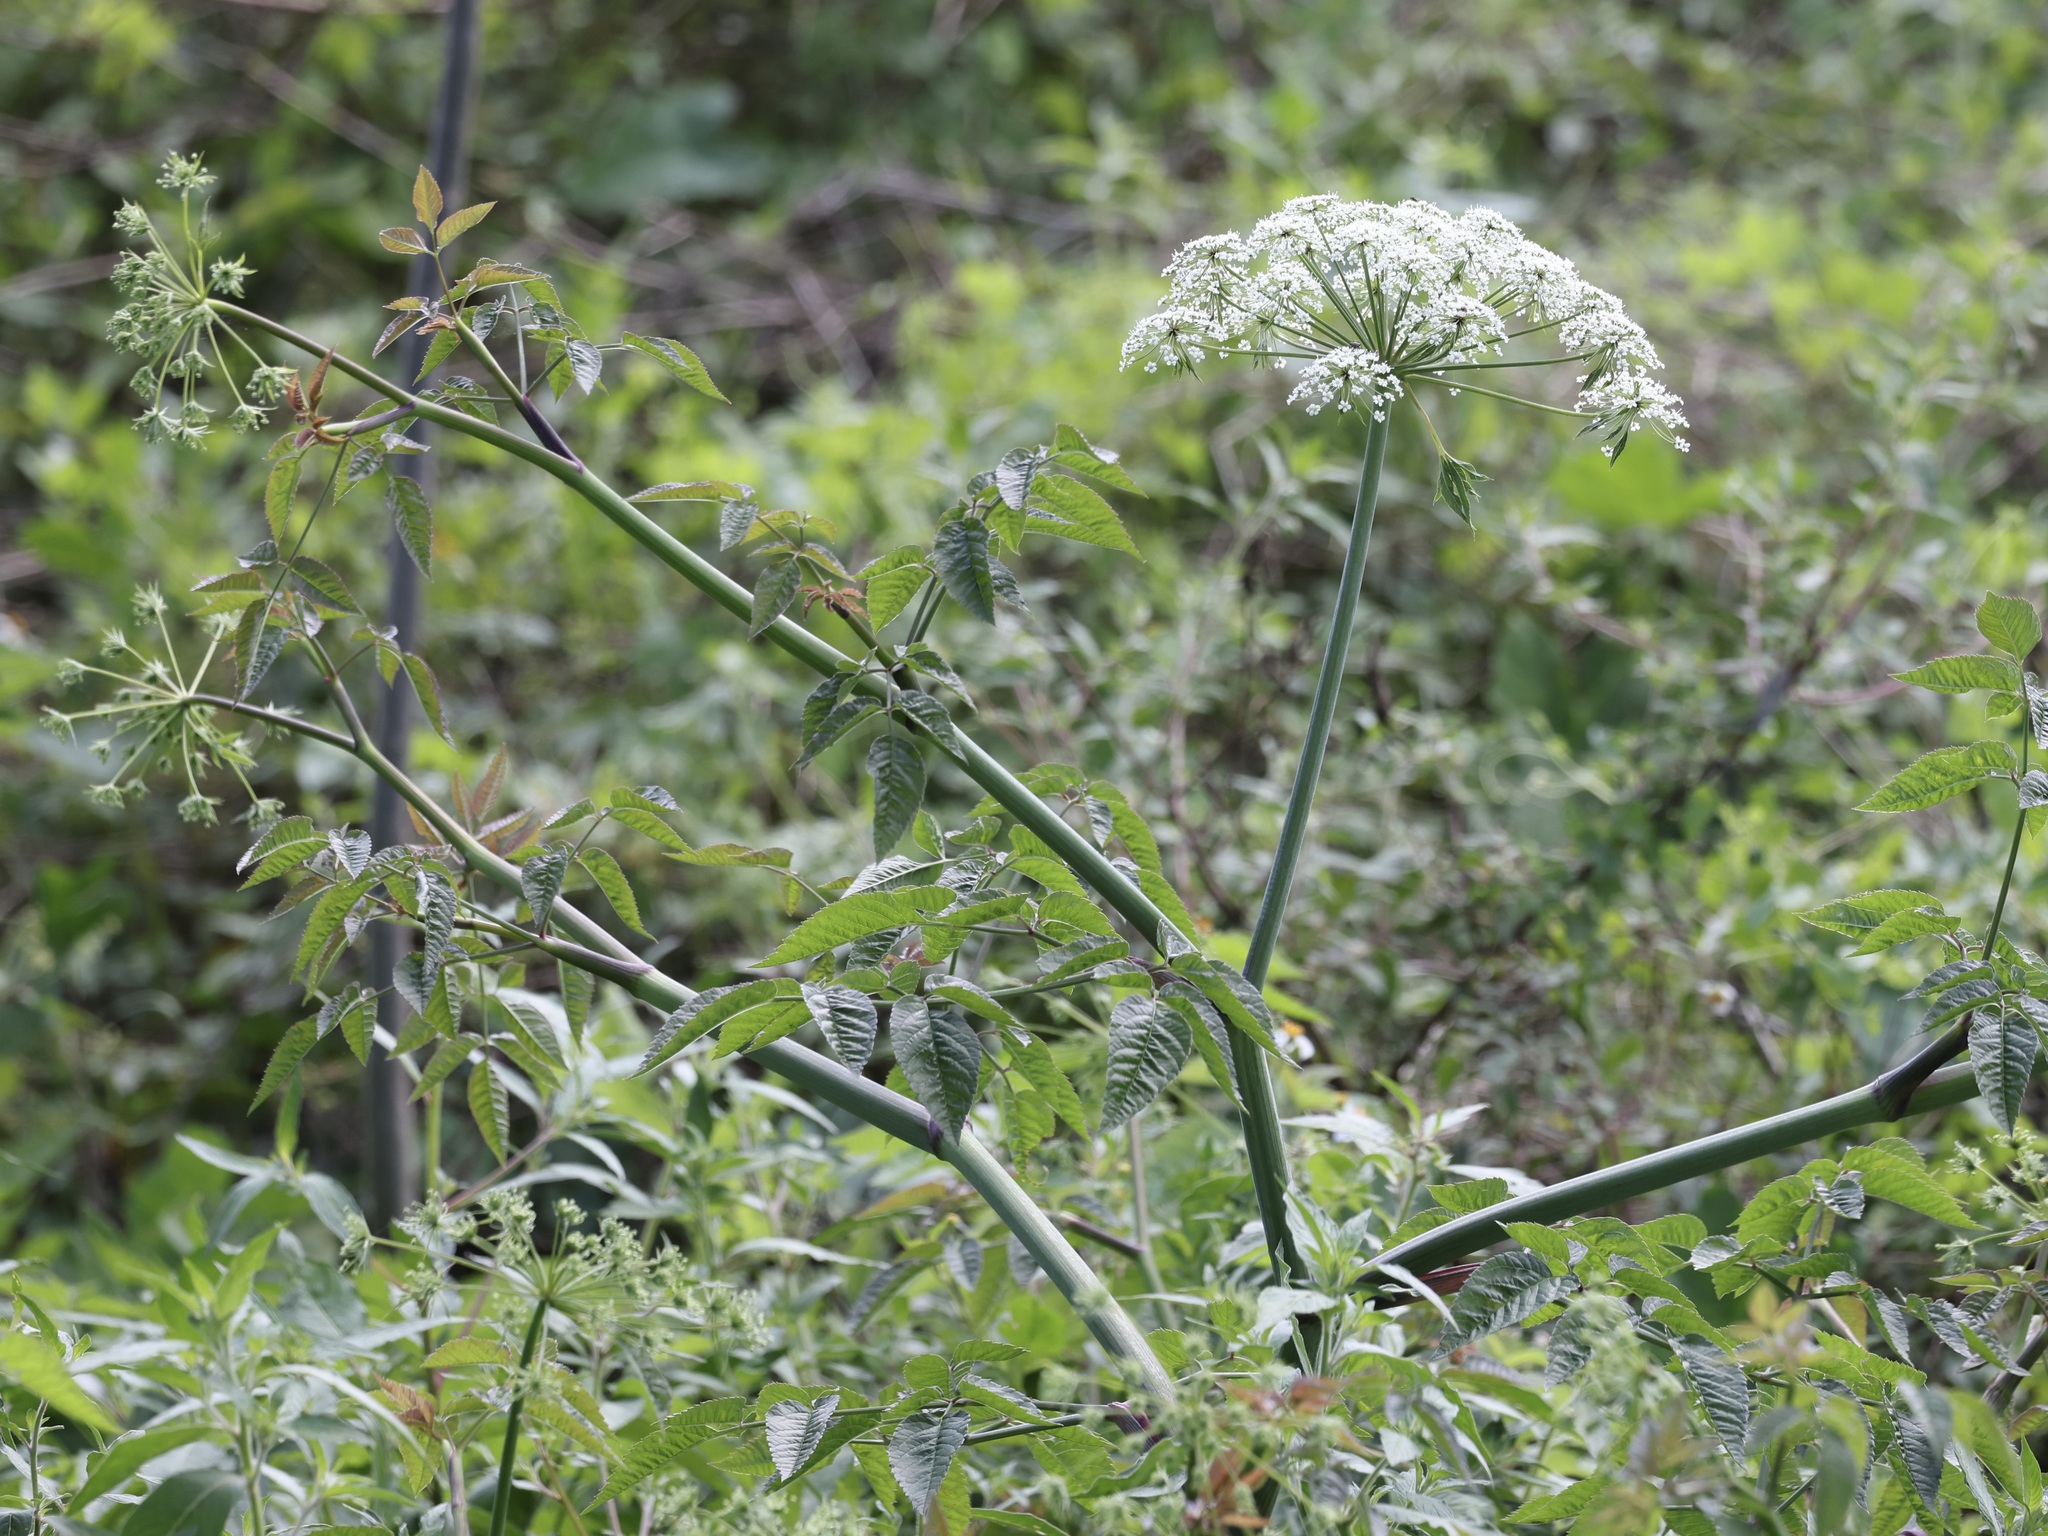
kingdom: Plantae
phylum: Tracheophyta
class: Magnoliopsida
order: Apiales
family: Apiaceae
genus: Cicuta
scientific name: Cicuta maculata
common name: Spotted cowbane
